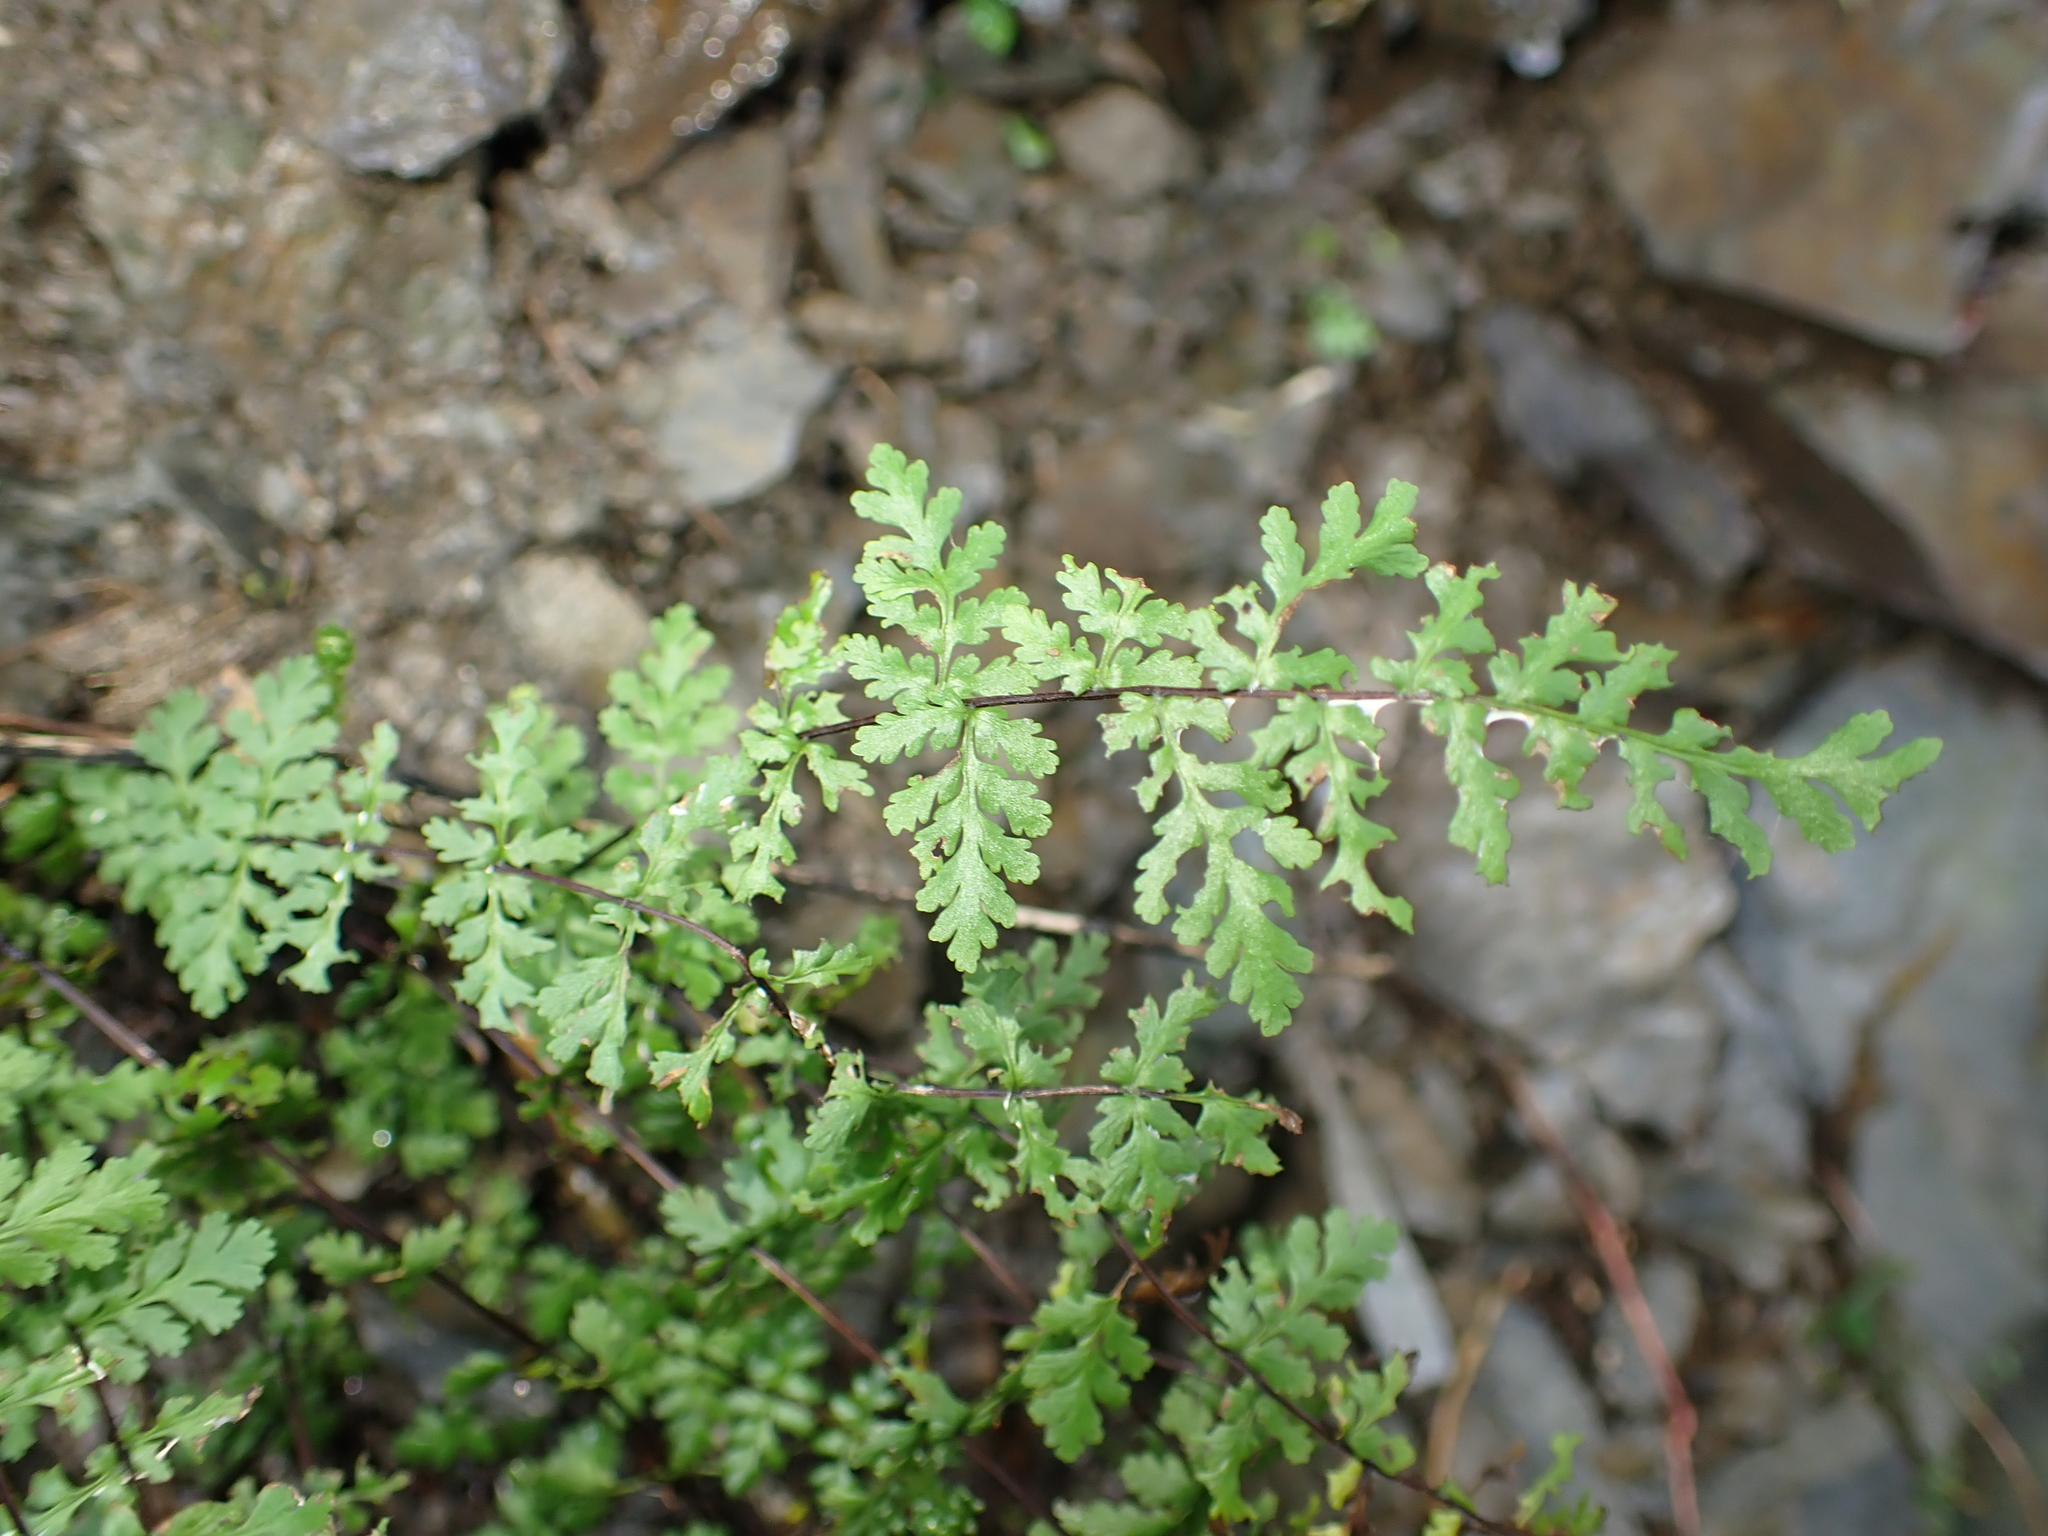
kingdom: Plantae
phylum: Tracheophyta
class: Polypodiopsida
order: Polypodiales
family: Pteridaceae
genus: Oeosporangium
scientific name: Oeosporangium chusanum
